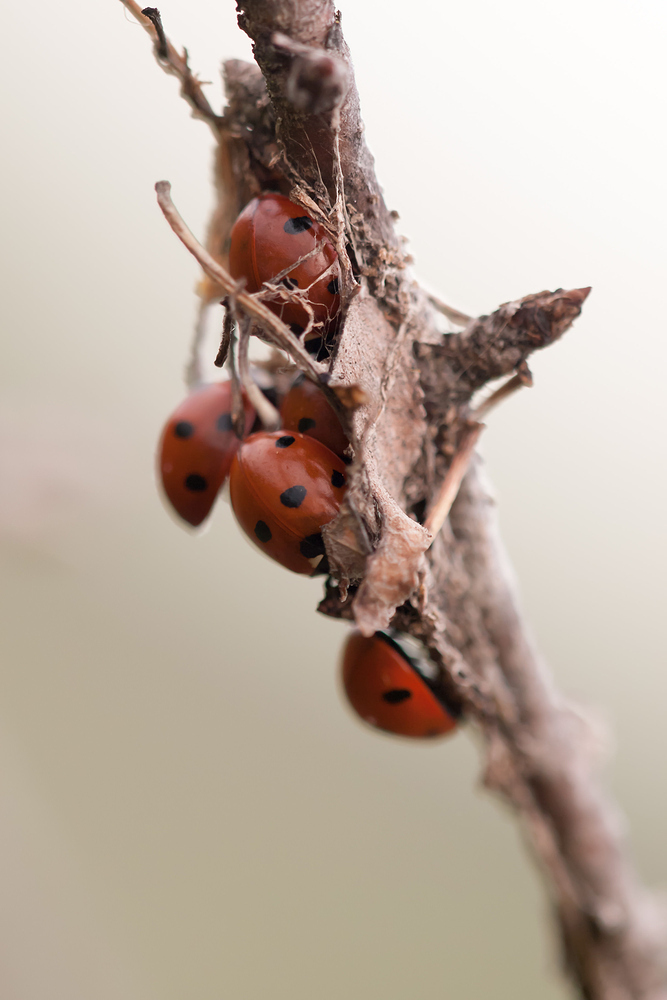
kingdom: Animalia
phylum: Arthropoda
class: Insecta
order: Coleoptera
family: Coccinellidae
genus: Coccinella
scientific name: Coccinella septempunctata
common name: Sevenspotted lady beetle
